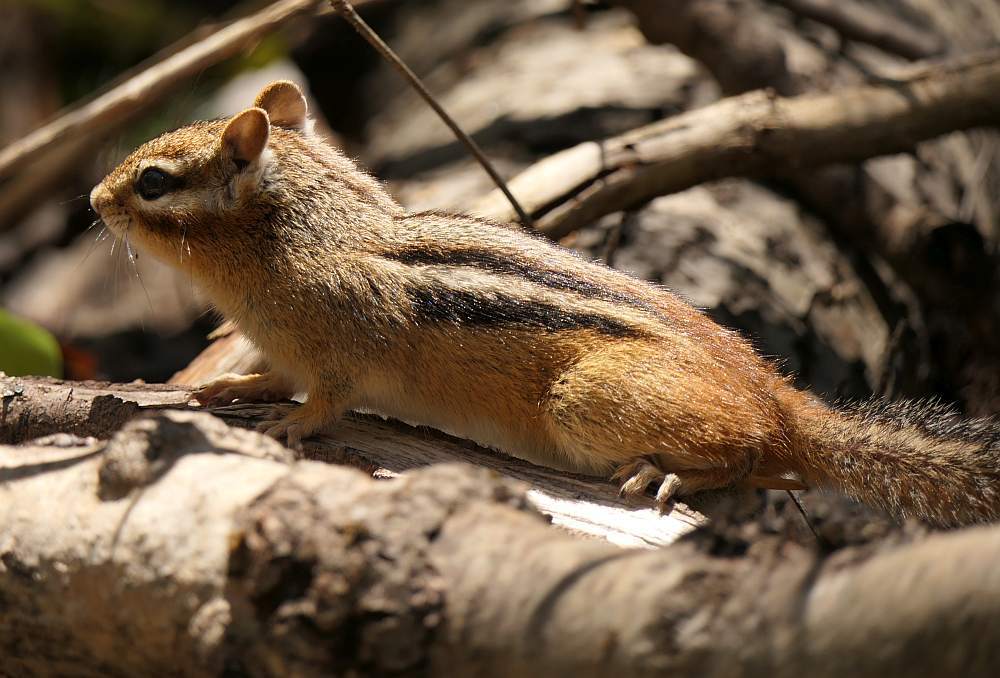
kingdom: Animalia
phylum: Chordata
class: Mammalia
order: Rodentia
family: Sciuridae
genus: Tamias
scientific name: Tamias striatus
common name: Eastern chipmunk
